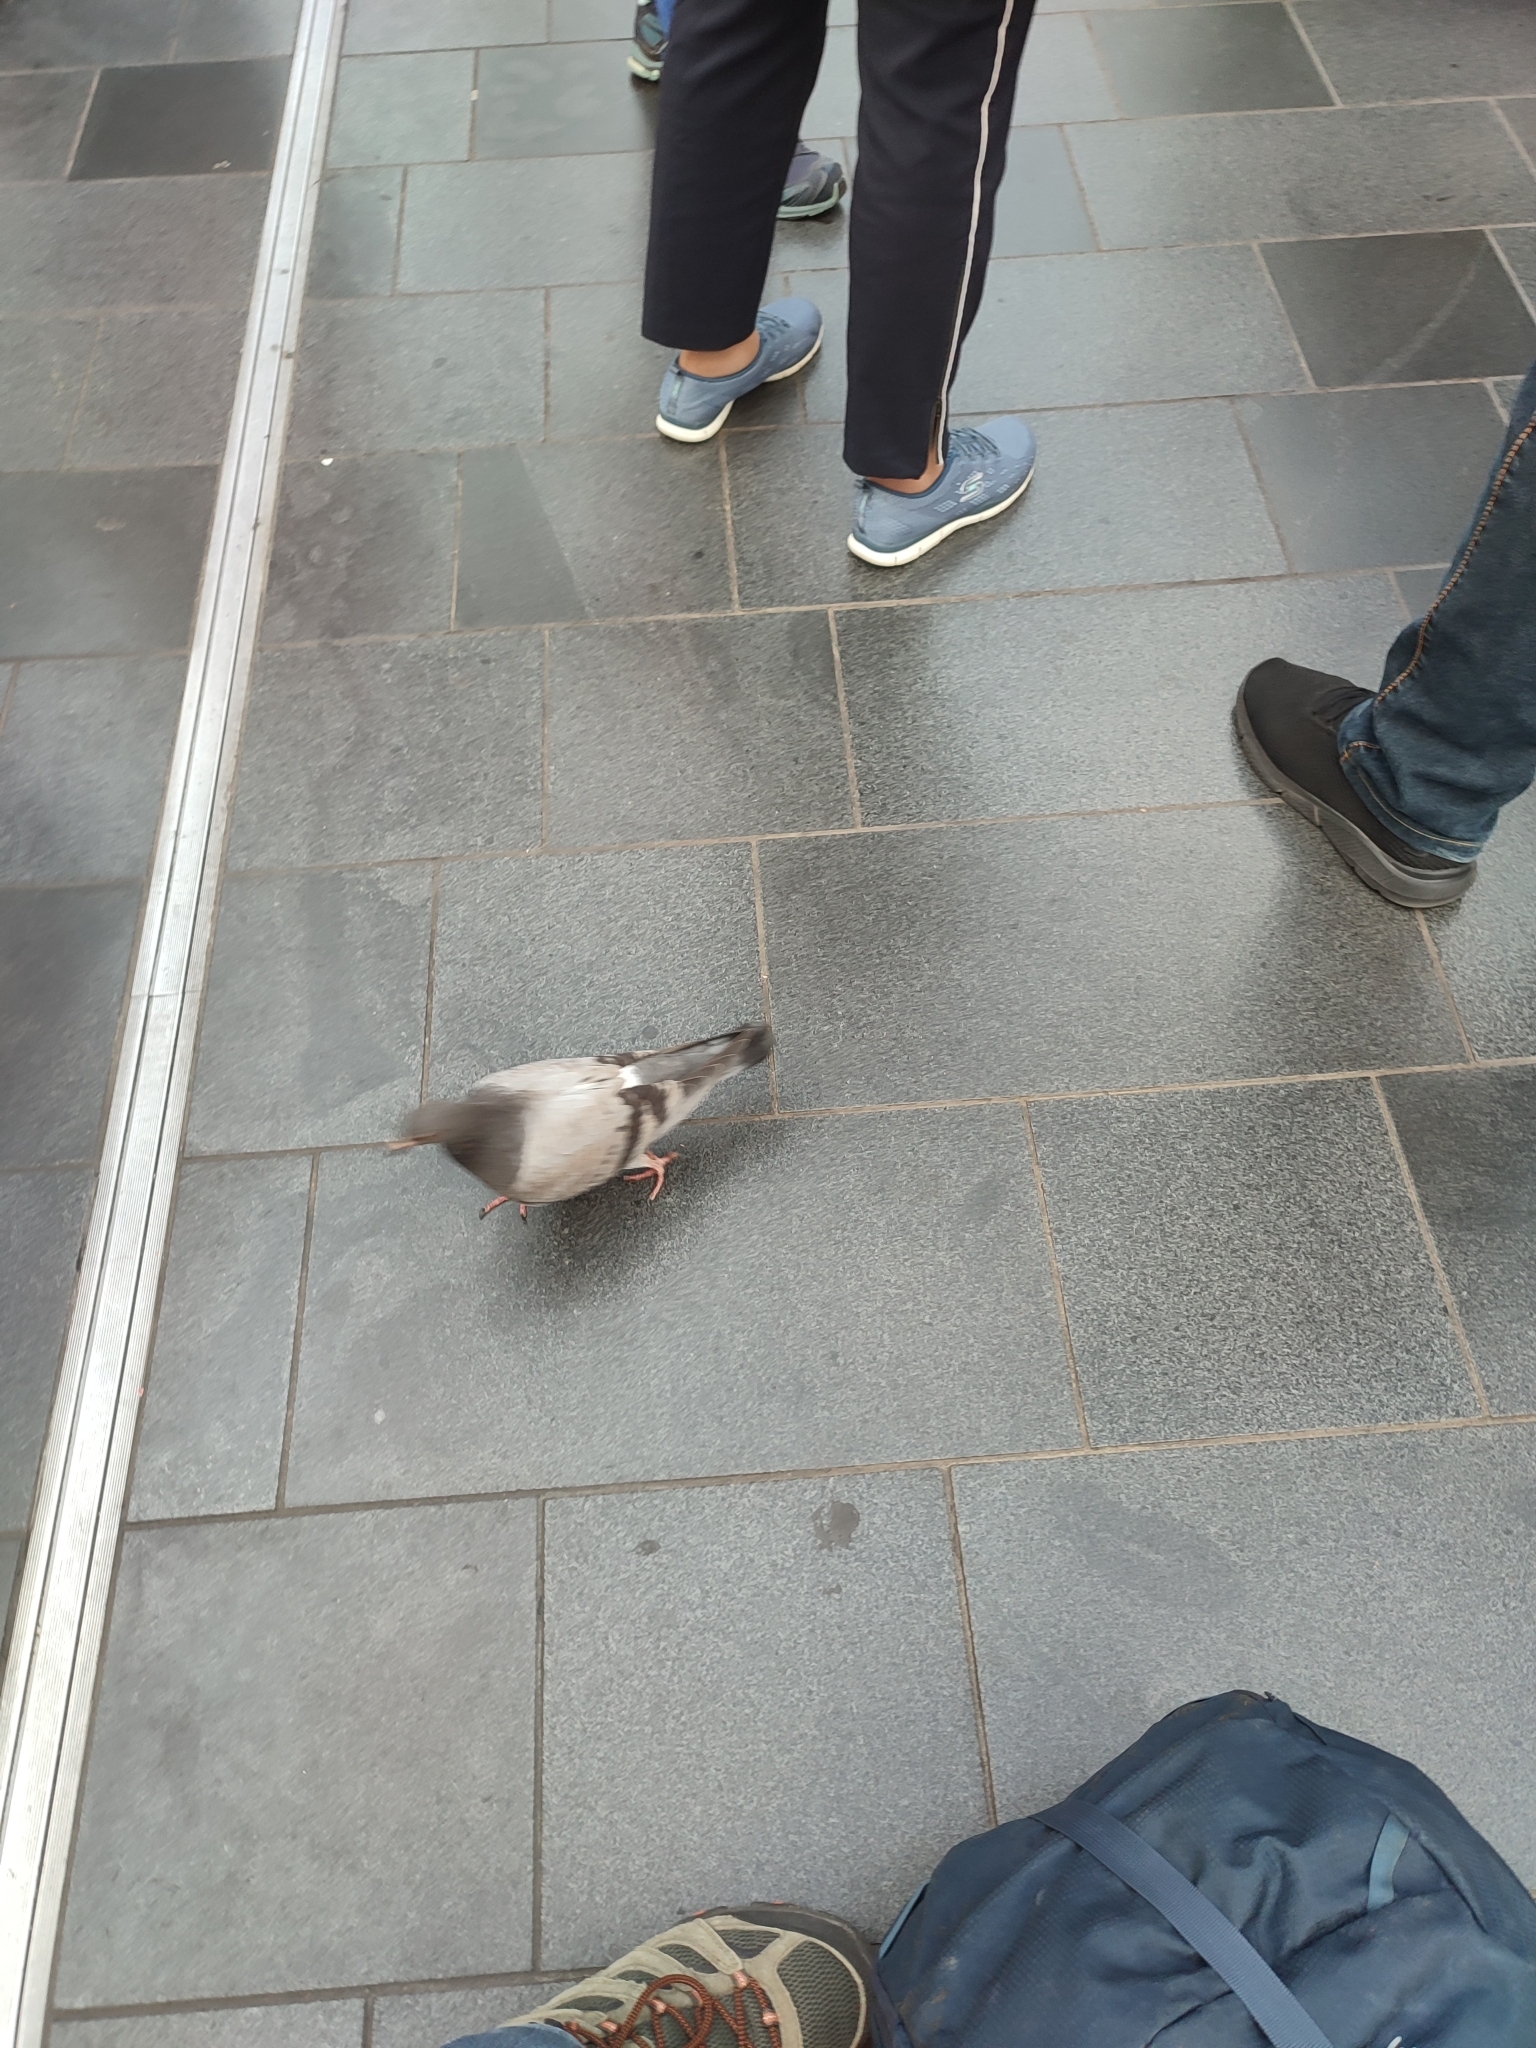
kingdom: Animalia
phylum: Chordata
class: Aves
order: Columbiformes
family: Columbidae
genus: Columba
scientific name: Columba livia
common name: Rock pigeon
